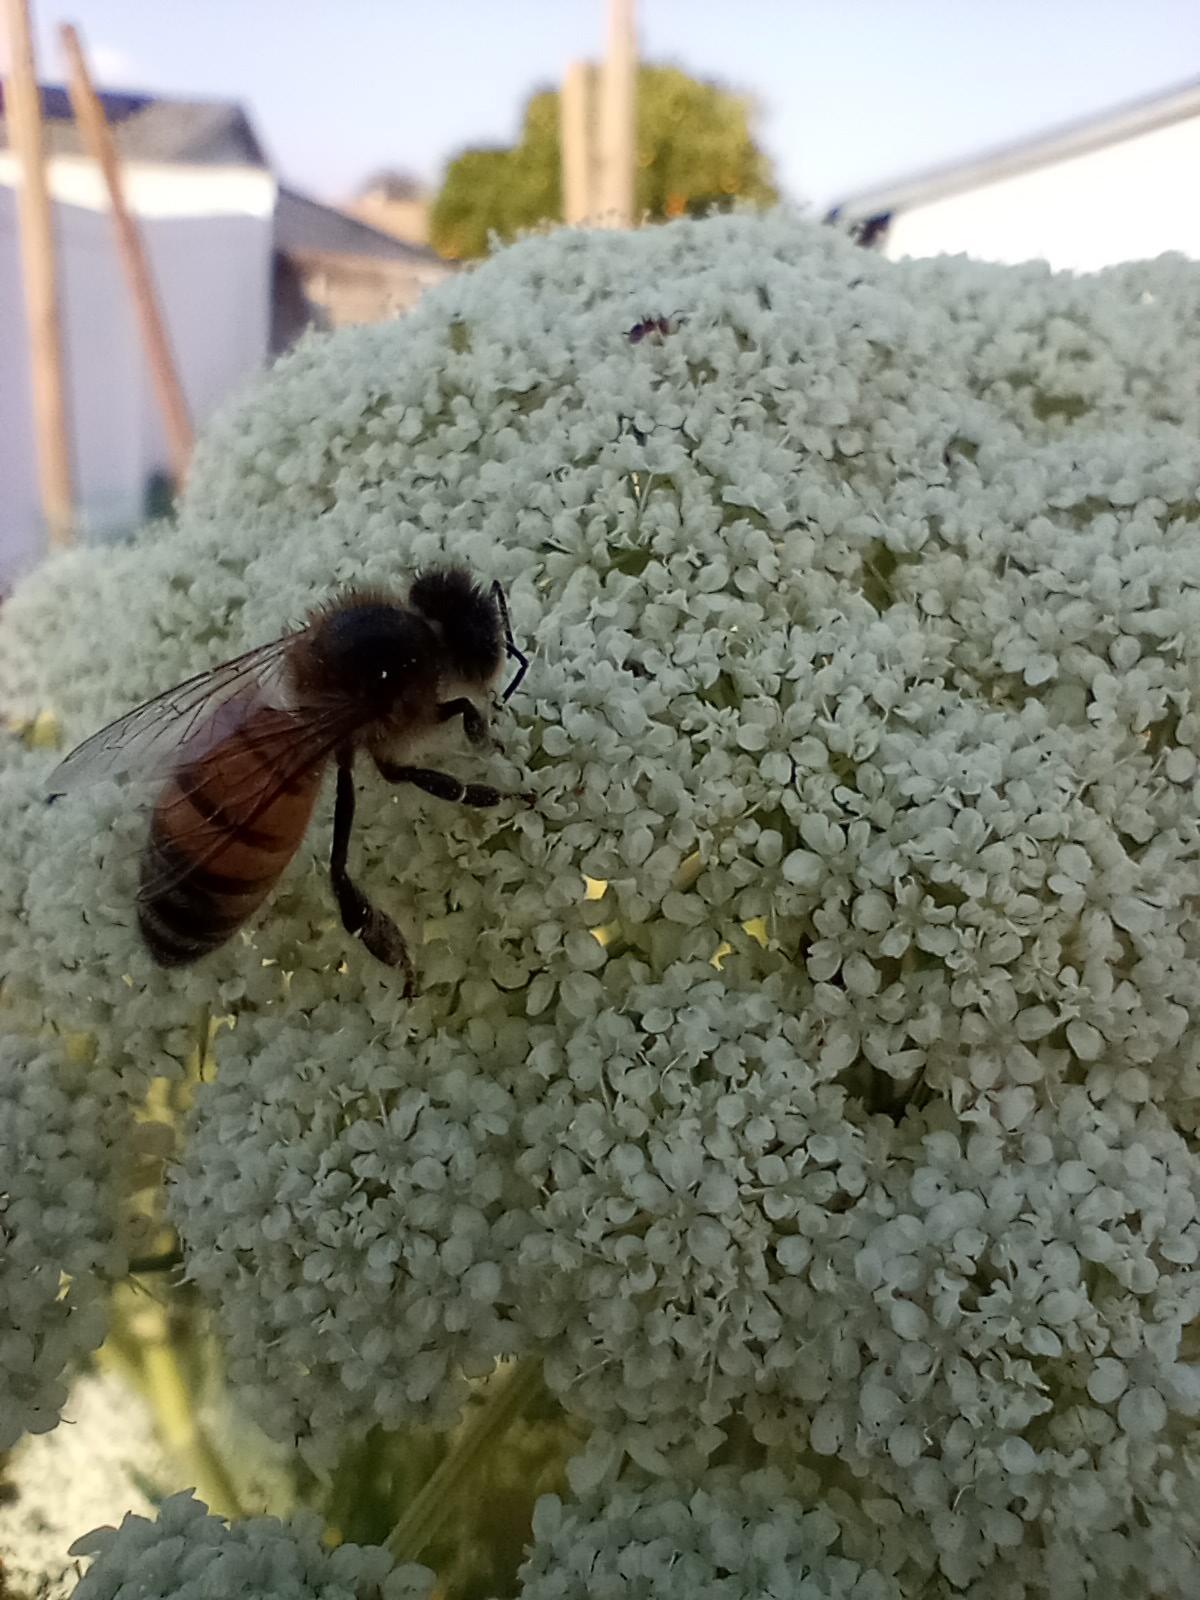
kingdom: Animalia
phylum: Arthropoda
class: Insecta
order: Hymenoptera
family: Apidae
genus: Apis
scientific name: Apis mellifera
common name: Honey bee
